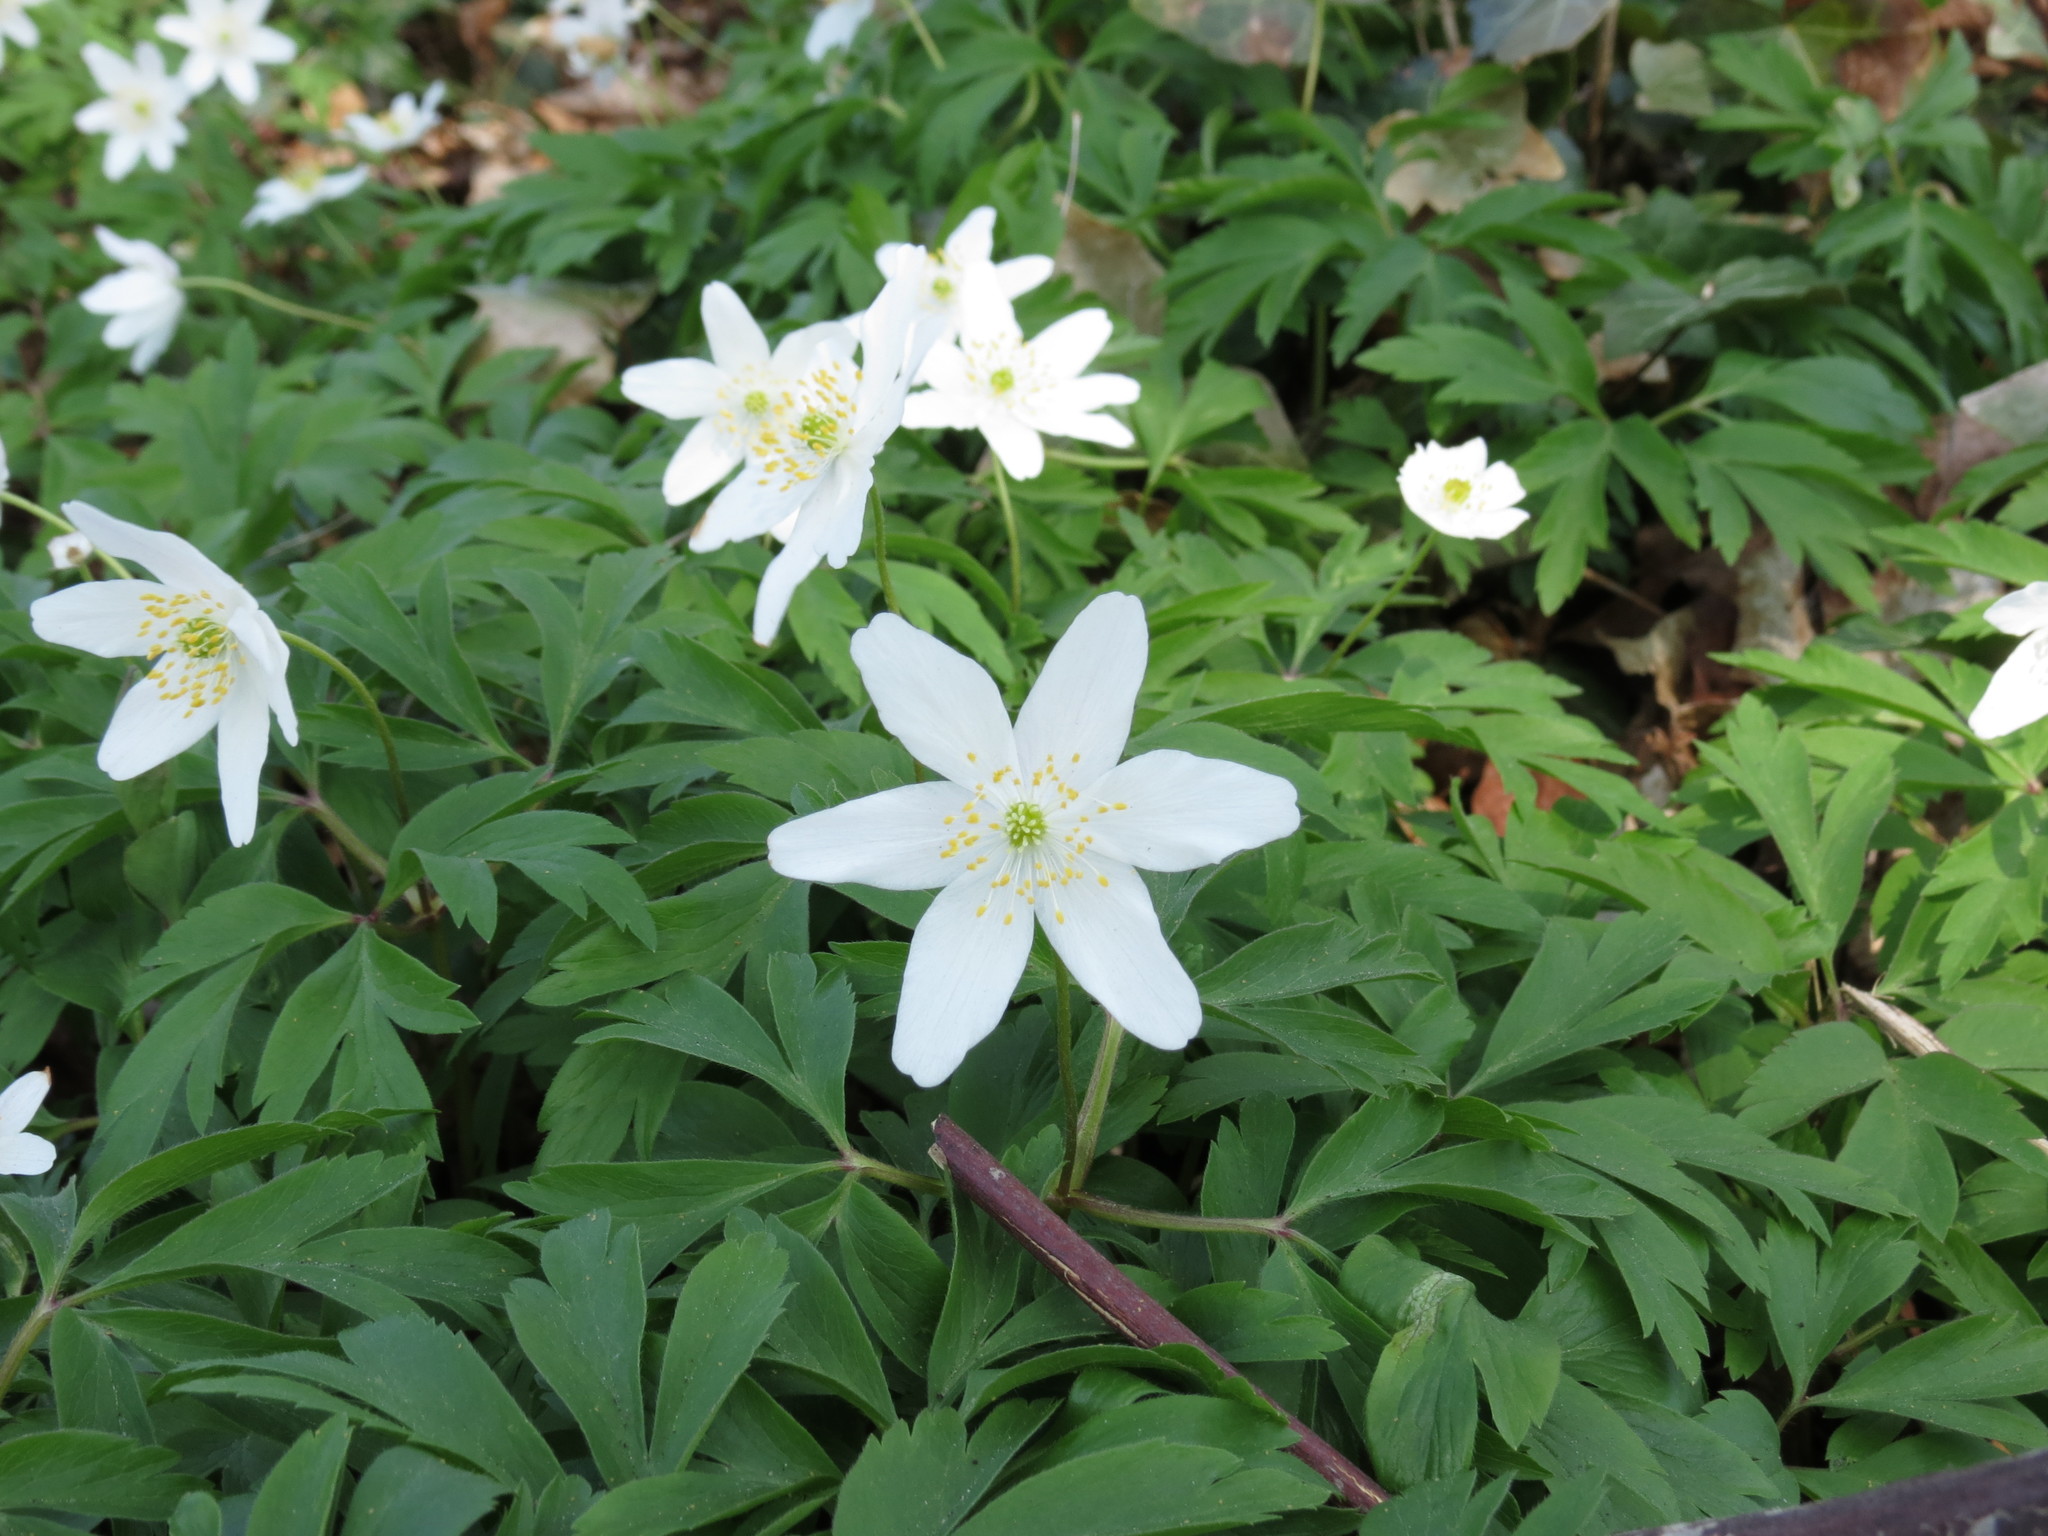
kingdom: Plantae
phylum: Tracheophyta
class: Magnoliopsida
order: Ranunculales
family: Ranunculaceae
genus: Anemone
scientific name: Anemone nemorosa
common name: Wood anemone
